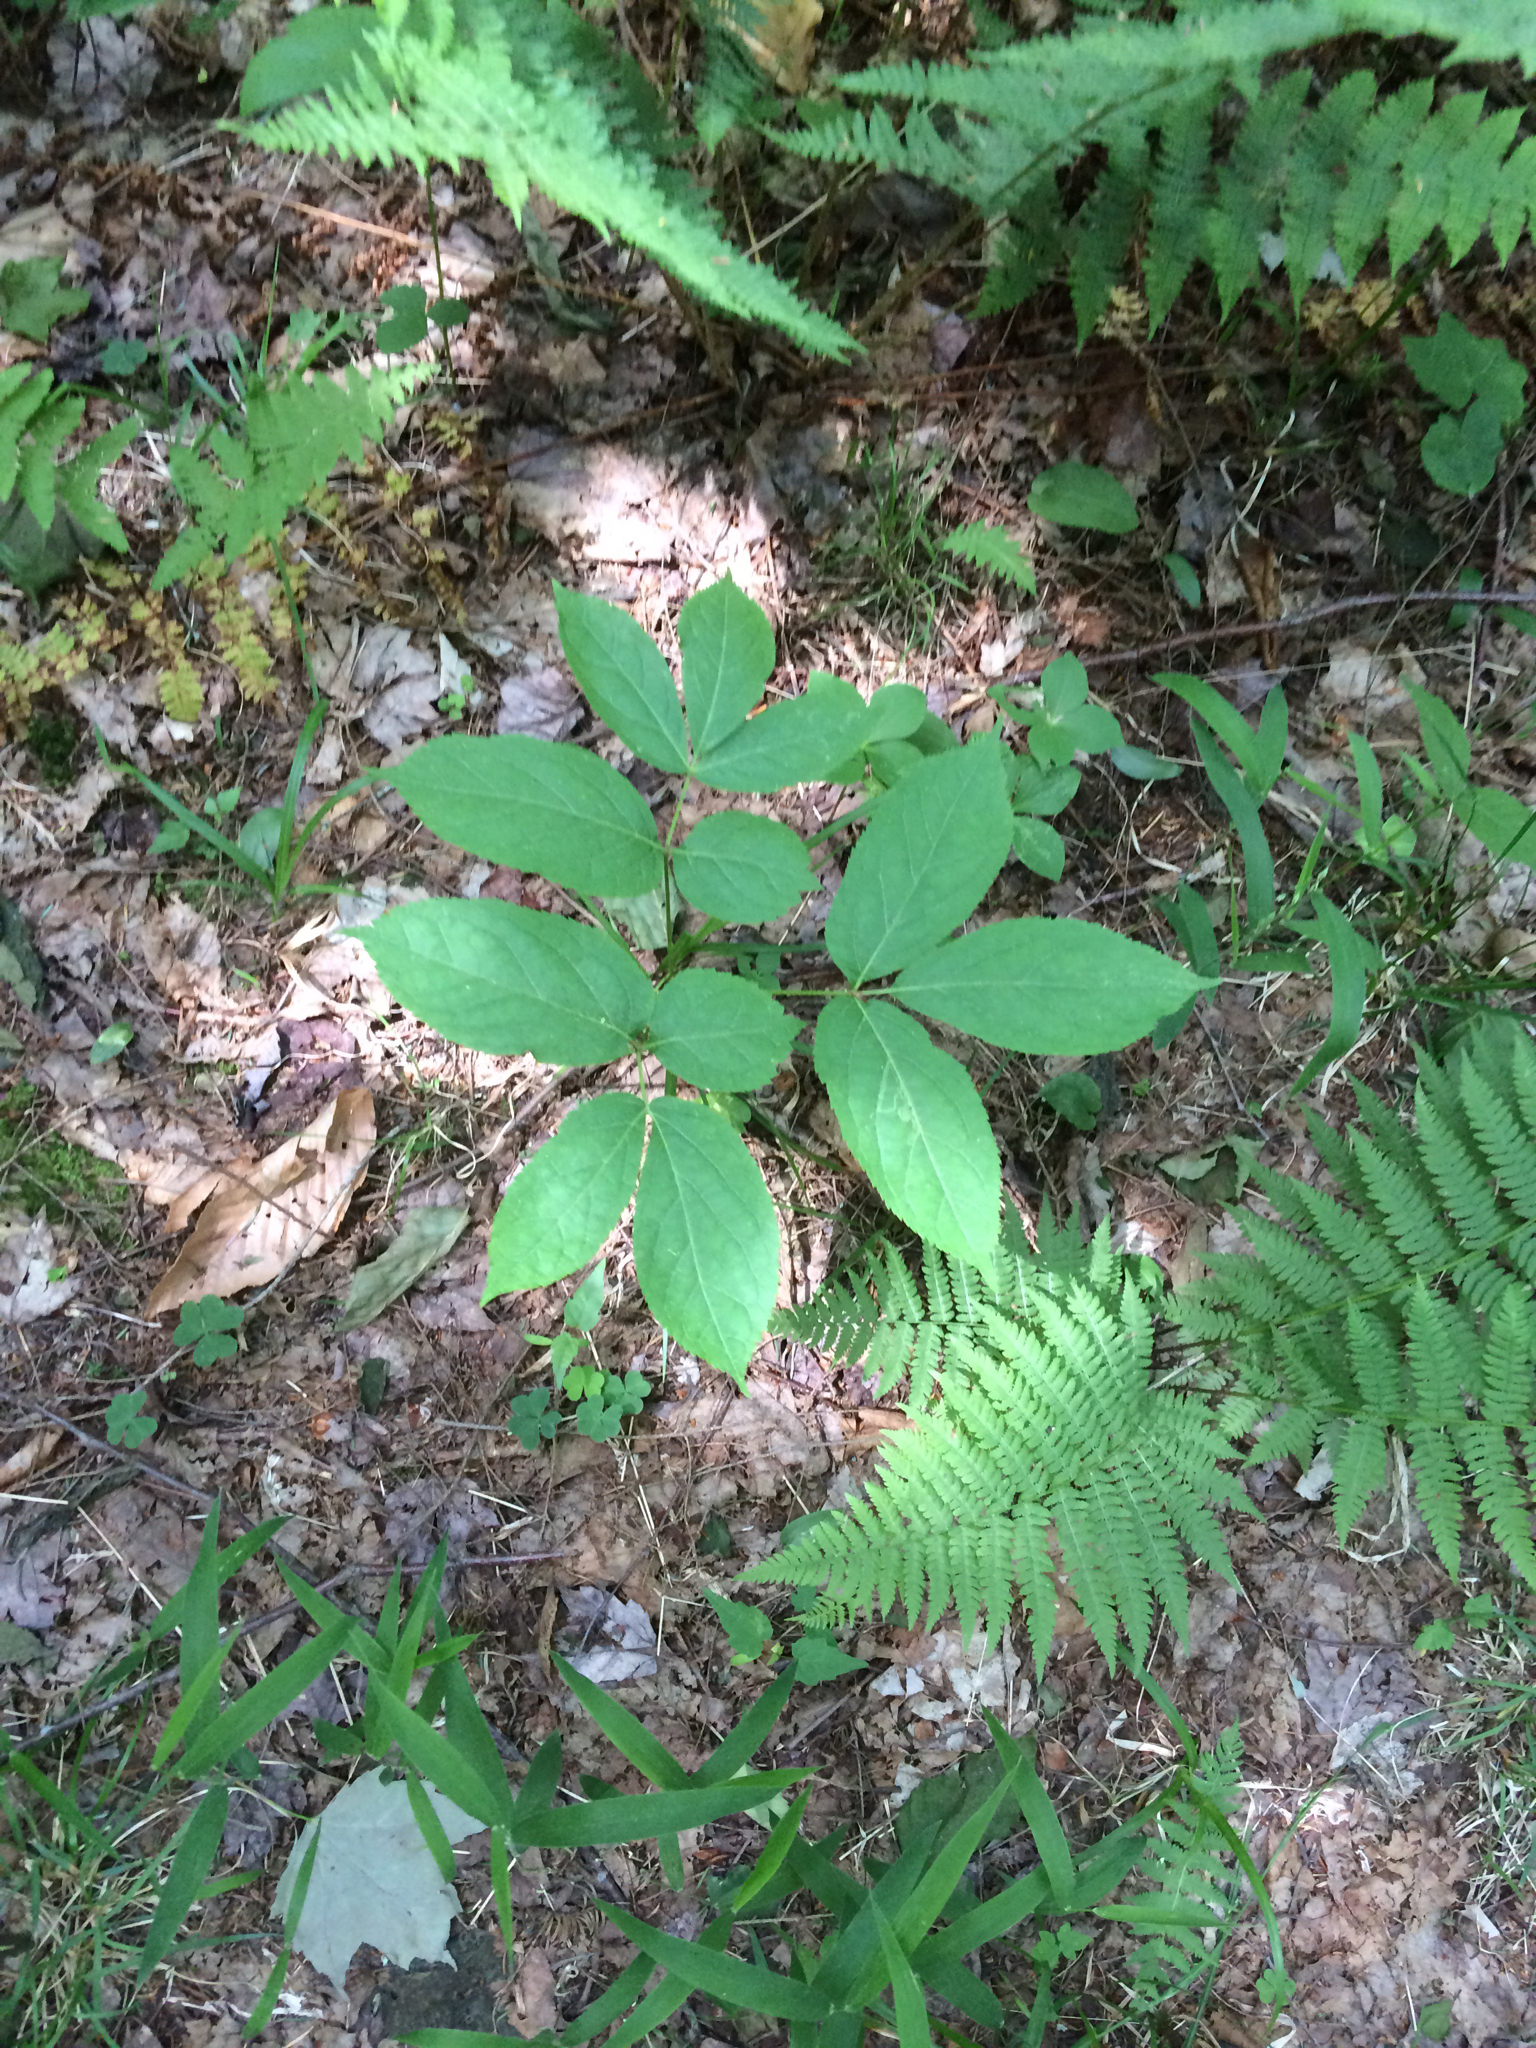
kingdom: Plantae
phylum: Tracheophyta
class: Magnoliopsida
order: Apiales
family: Araliaceae
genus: Aralia
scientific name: Aralia nudicaulis
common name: Wild sarsaparilla
